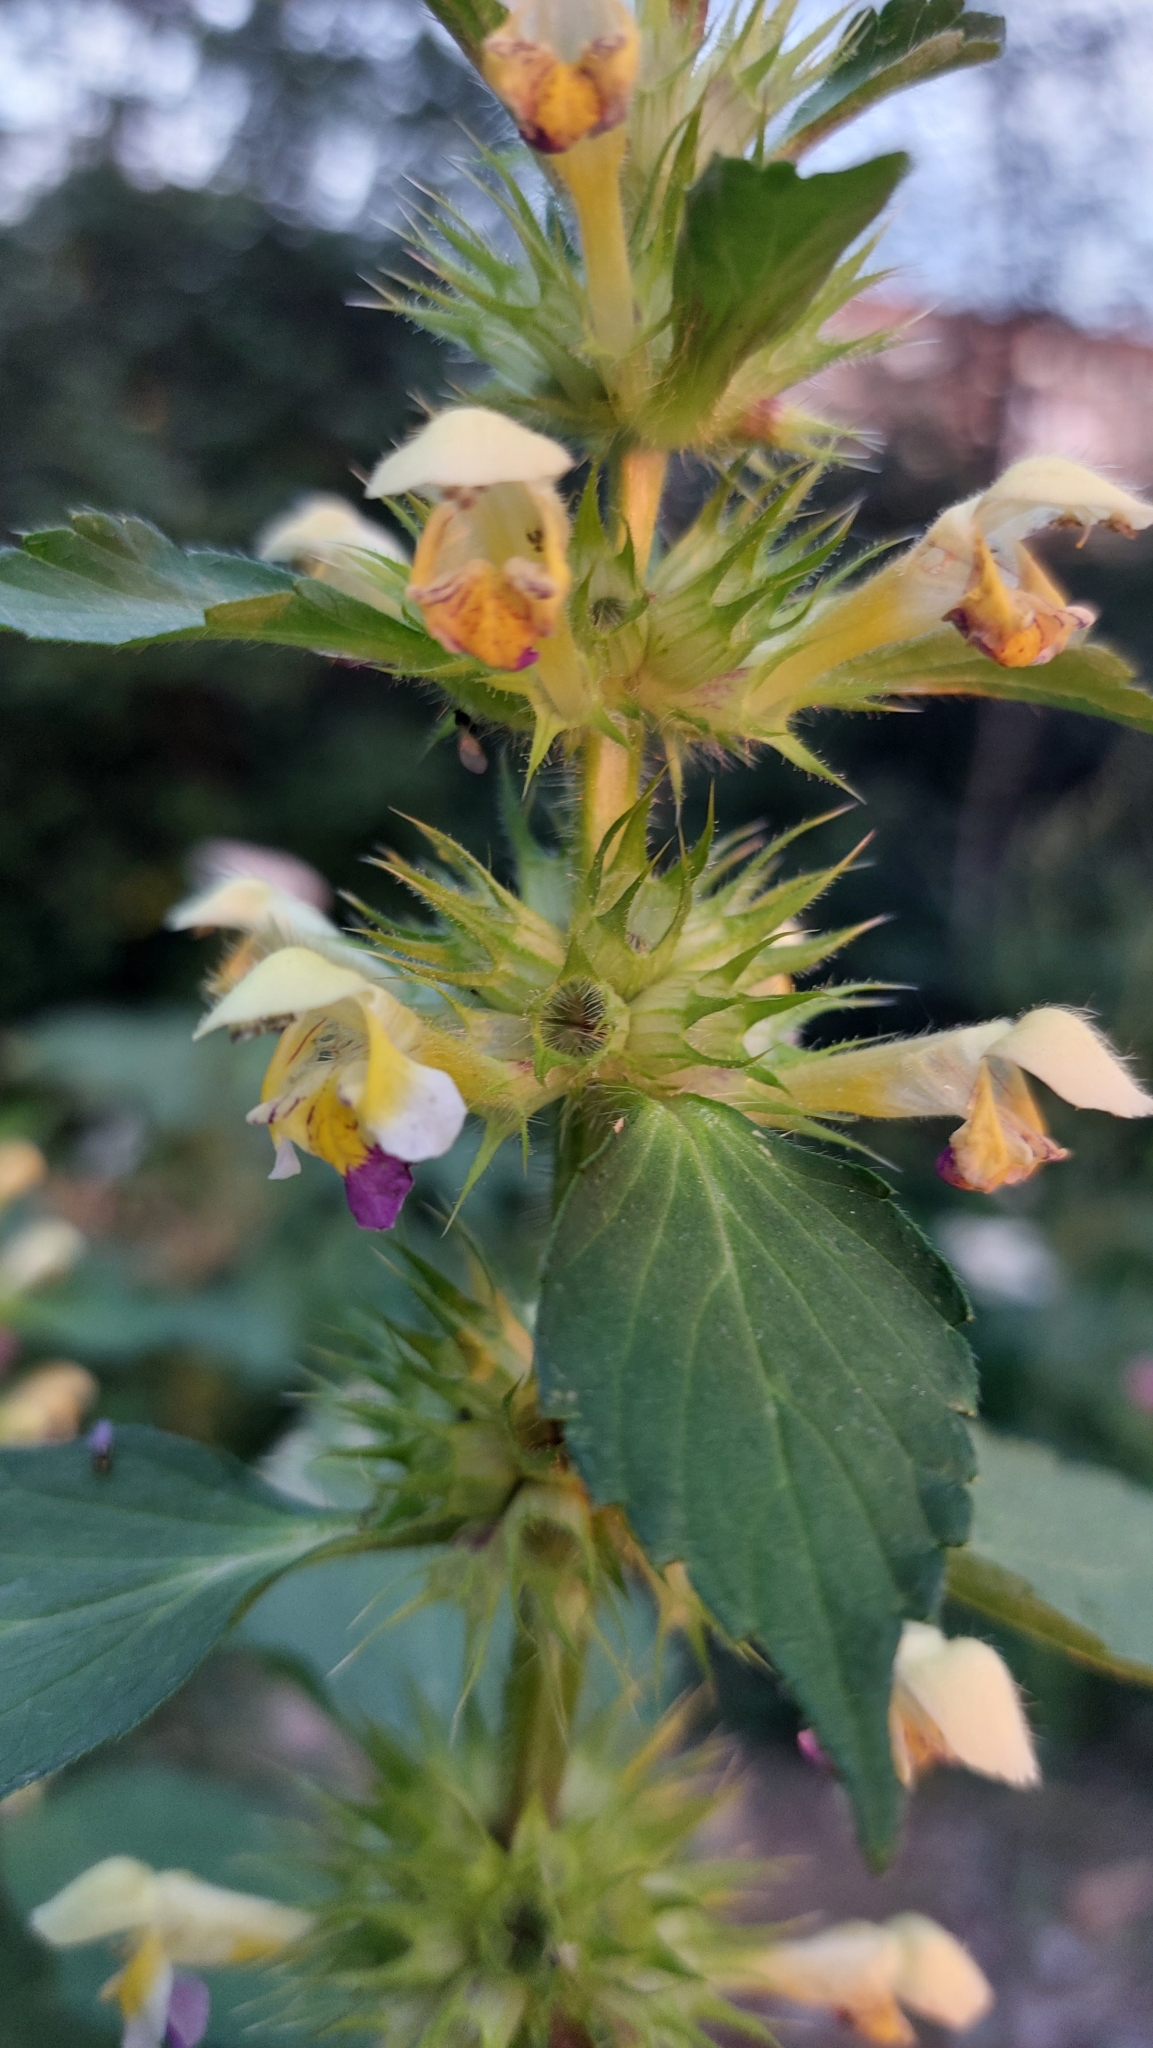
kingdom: Plantae
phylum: Tracheophyta
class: Magnoliopsida
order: Lamiales
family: Lamiaceae
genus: Galeopsis
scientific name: Galeopsis speciosa
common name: Large-flowered hemp-nettle
